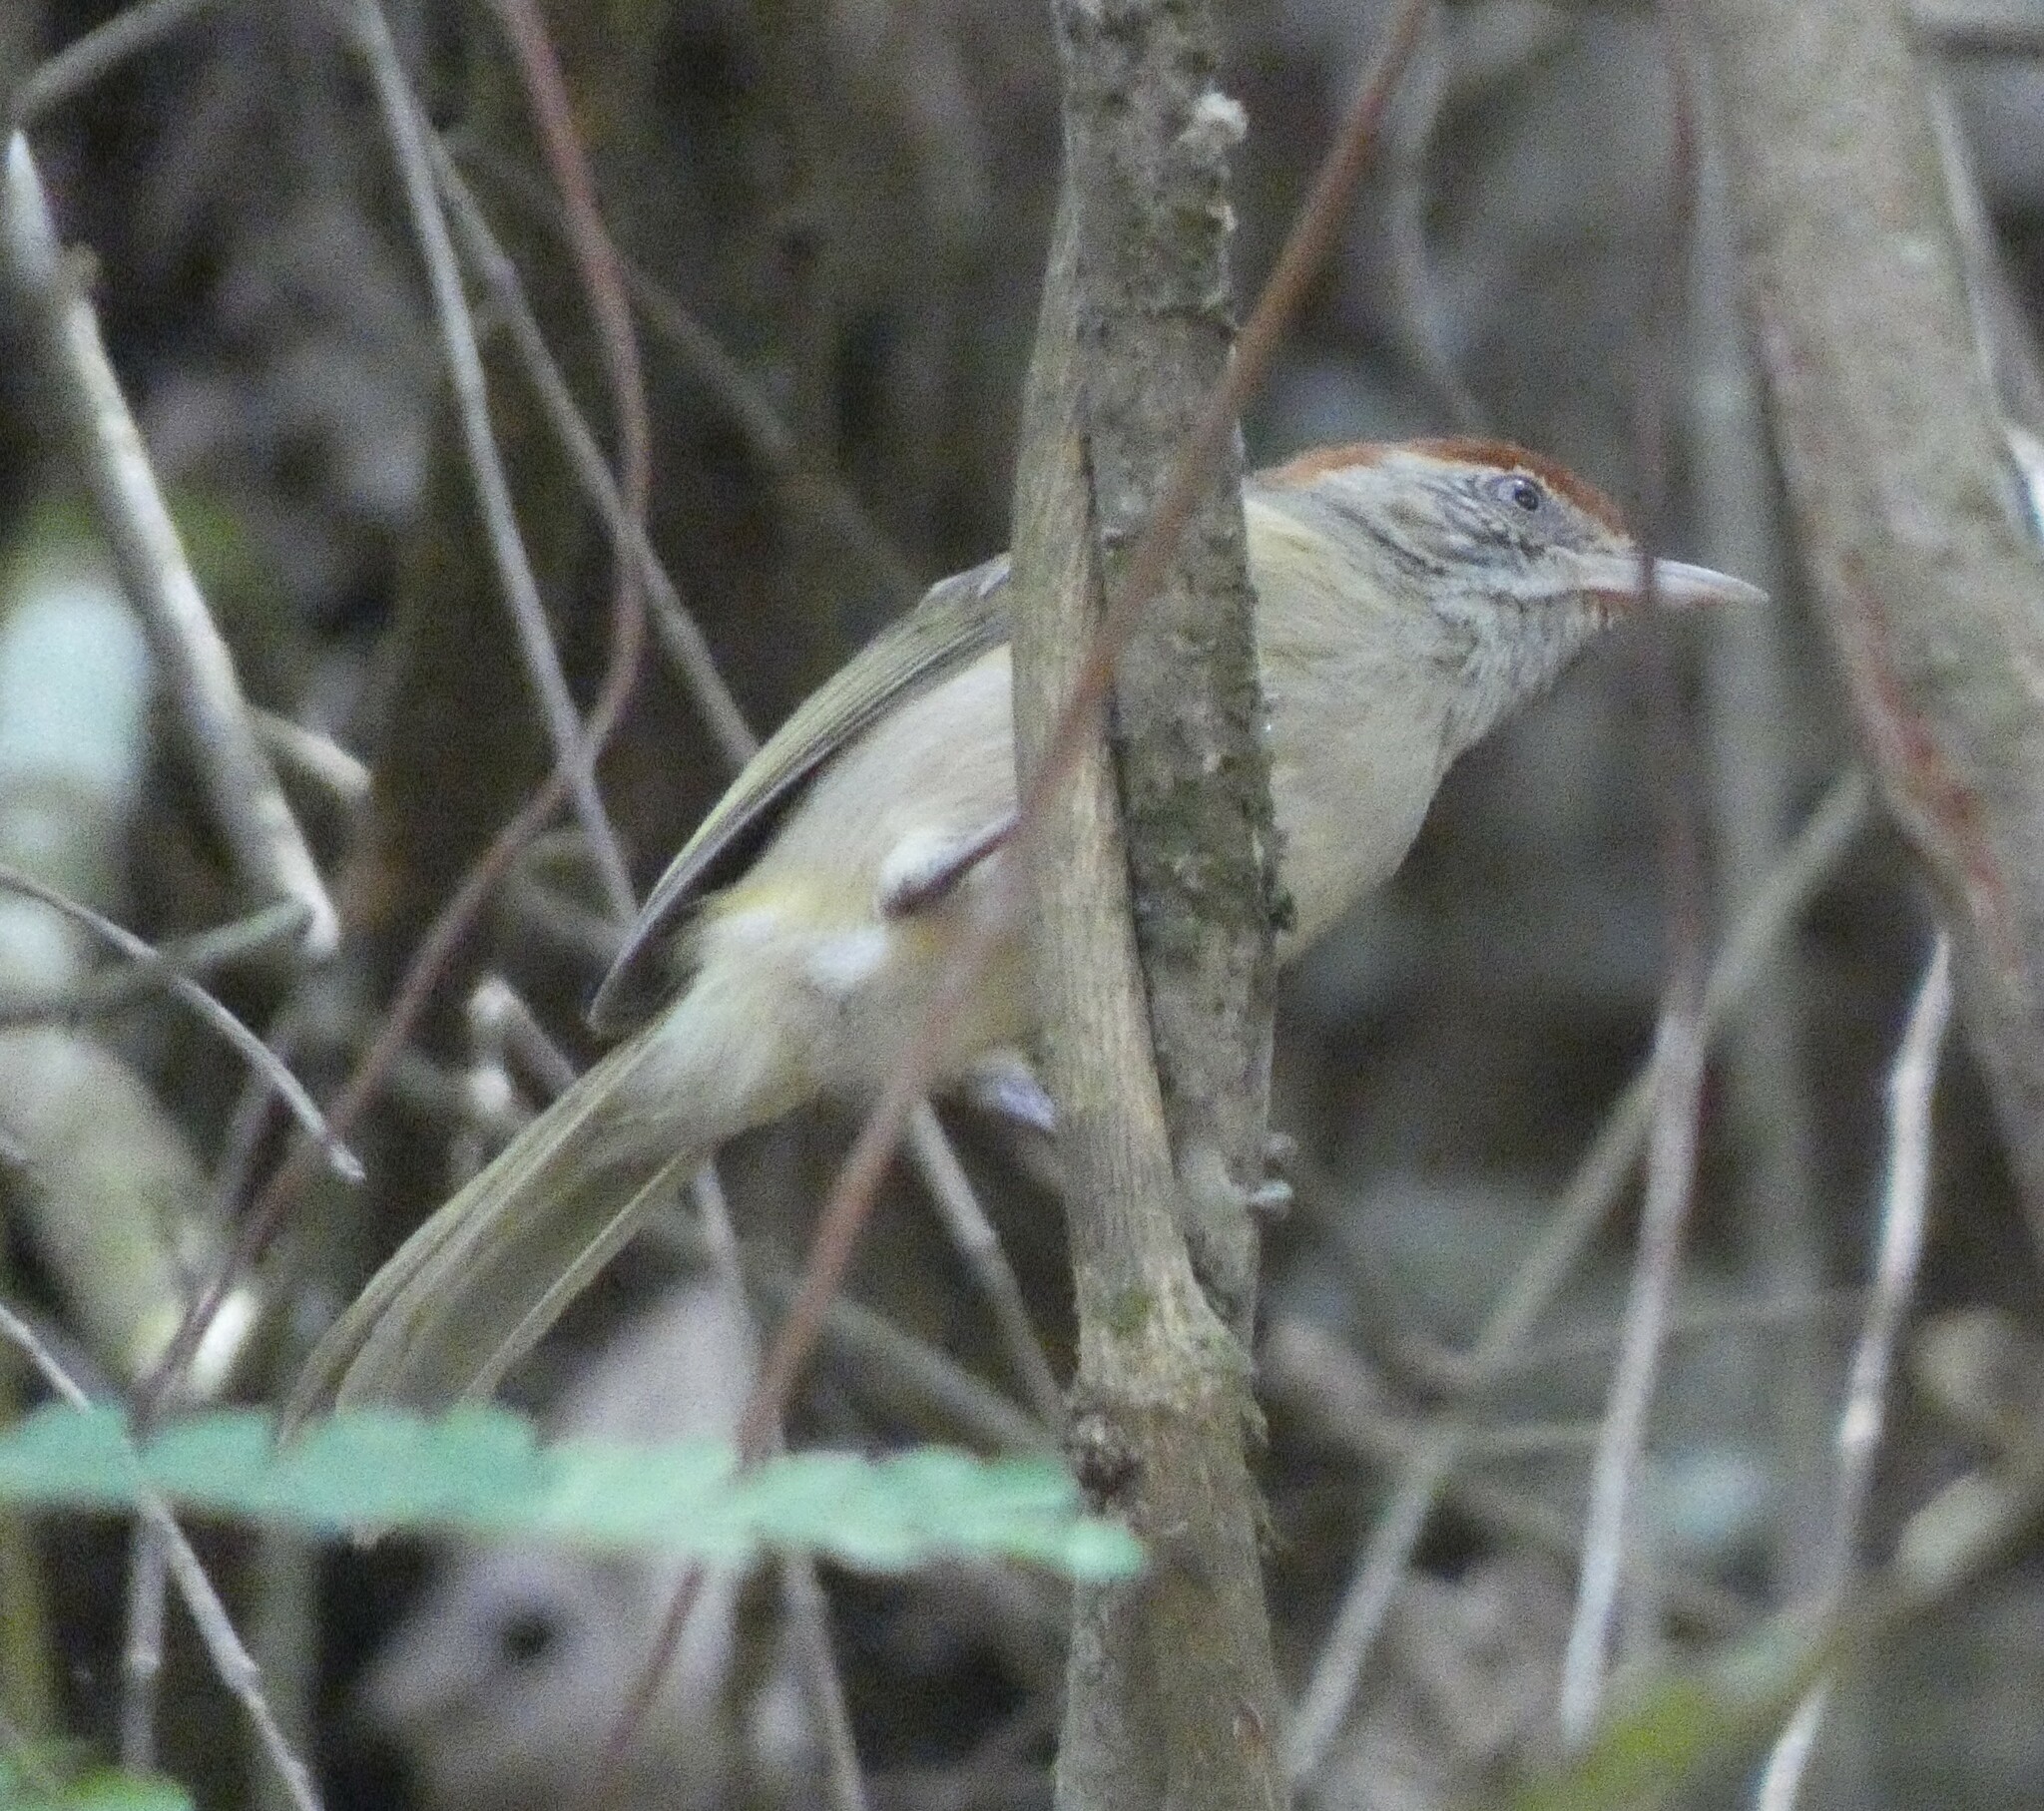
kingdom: Animalia
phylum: Chordata
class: Aves
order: Passeriformes
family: Vireonidae
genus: Hylophilus
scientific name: Hylophilus amaurocephalus
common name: Grey-eyed greenlet
